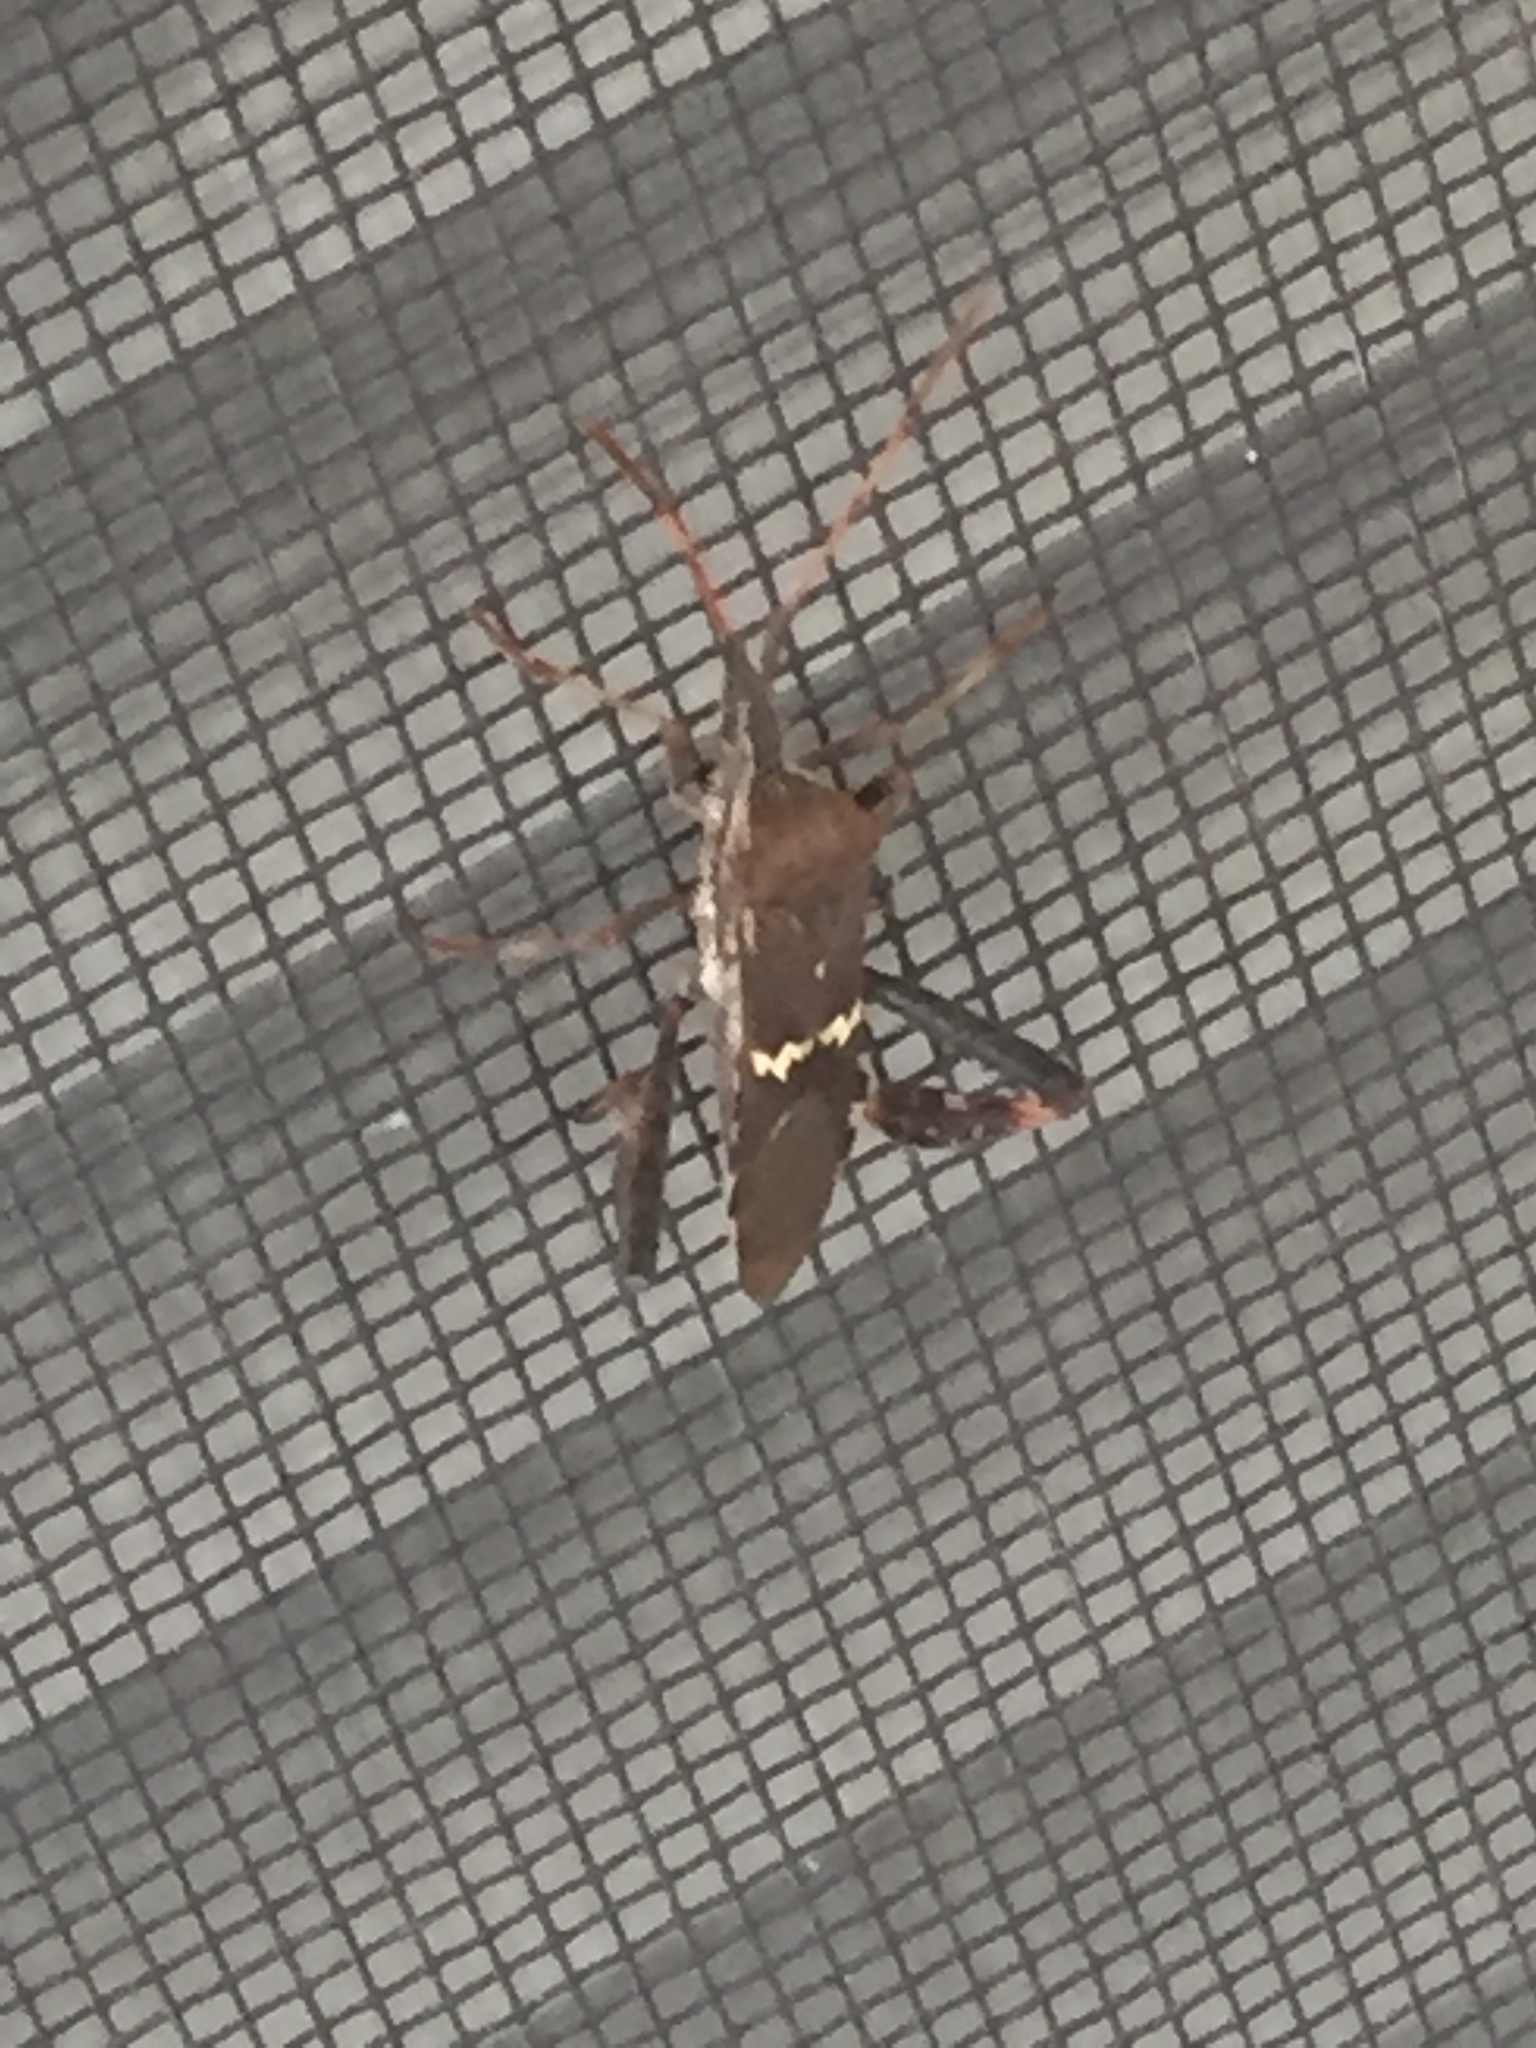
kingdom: Animalia
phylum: Arthropoda
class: Insecta
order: Hemiptera
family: Coreidae
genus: Leptoglossus
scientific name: Leptoglossus clypealis
